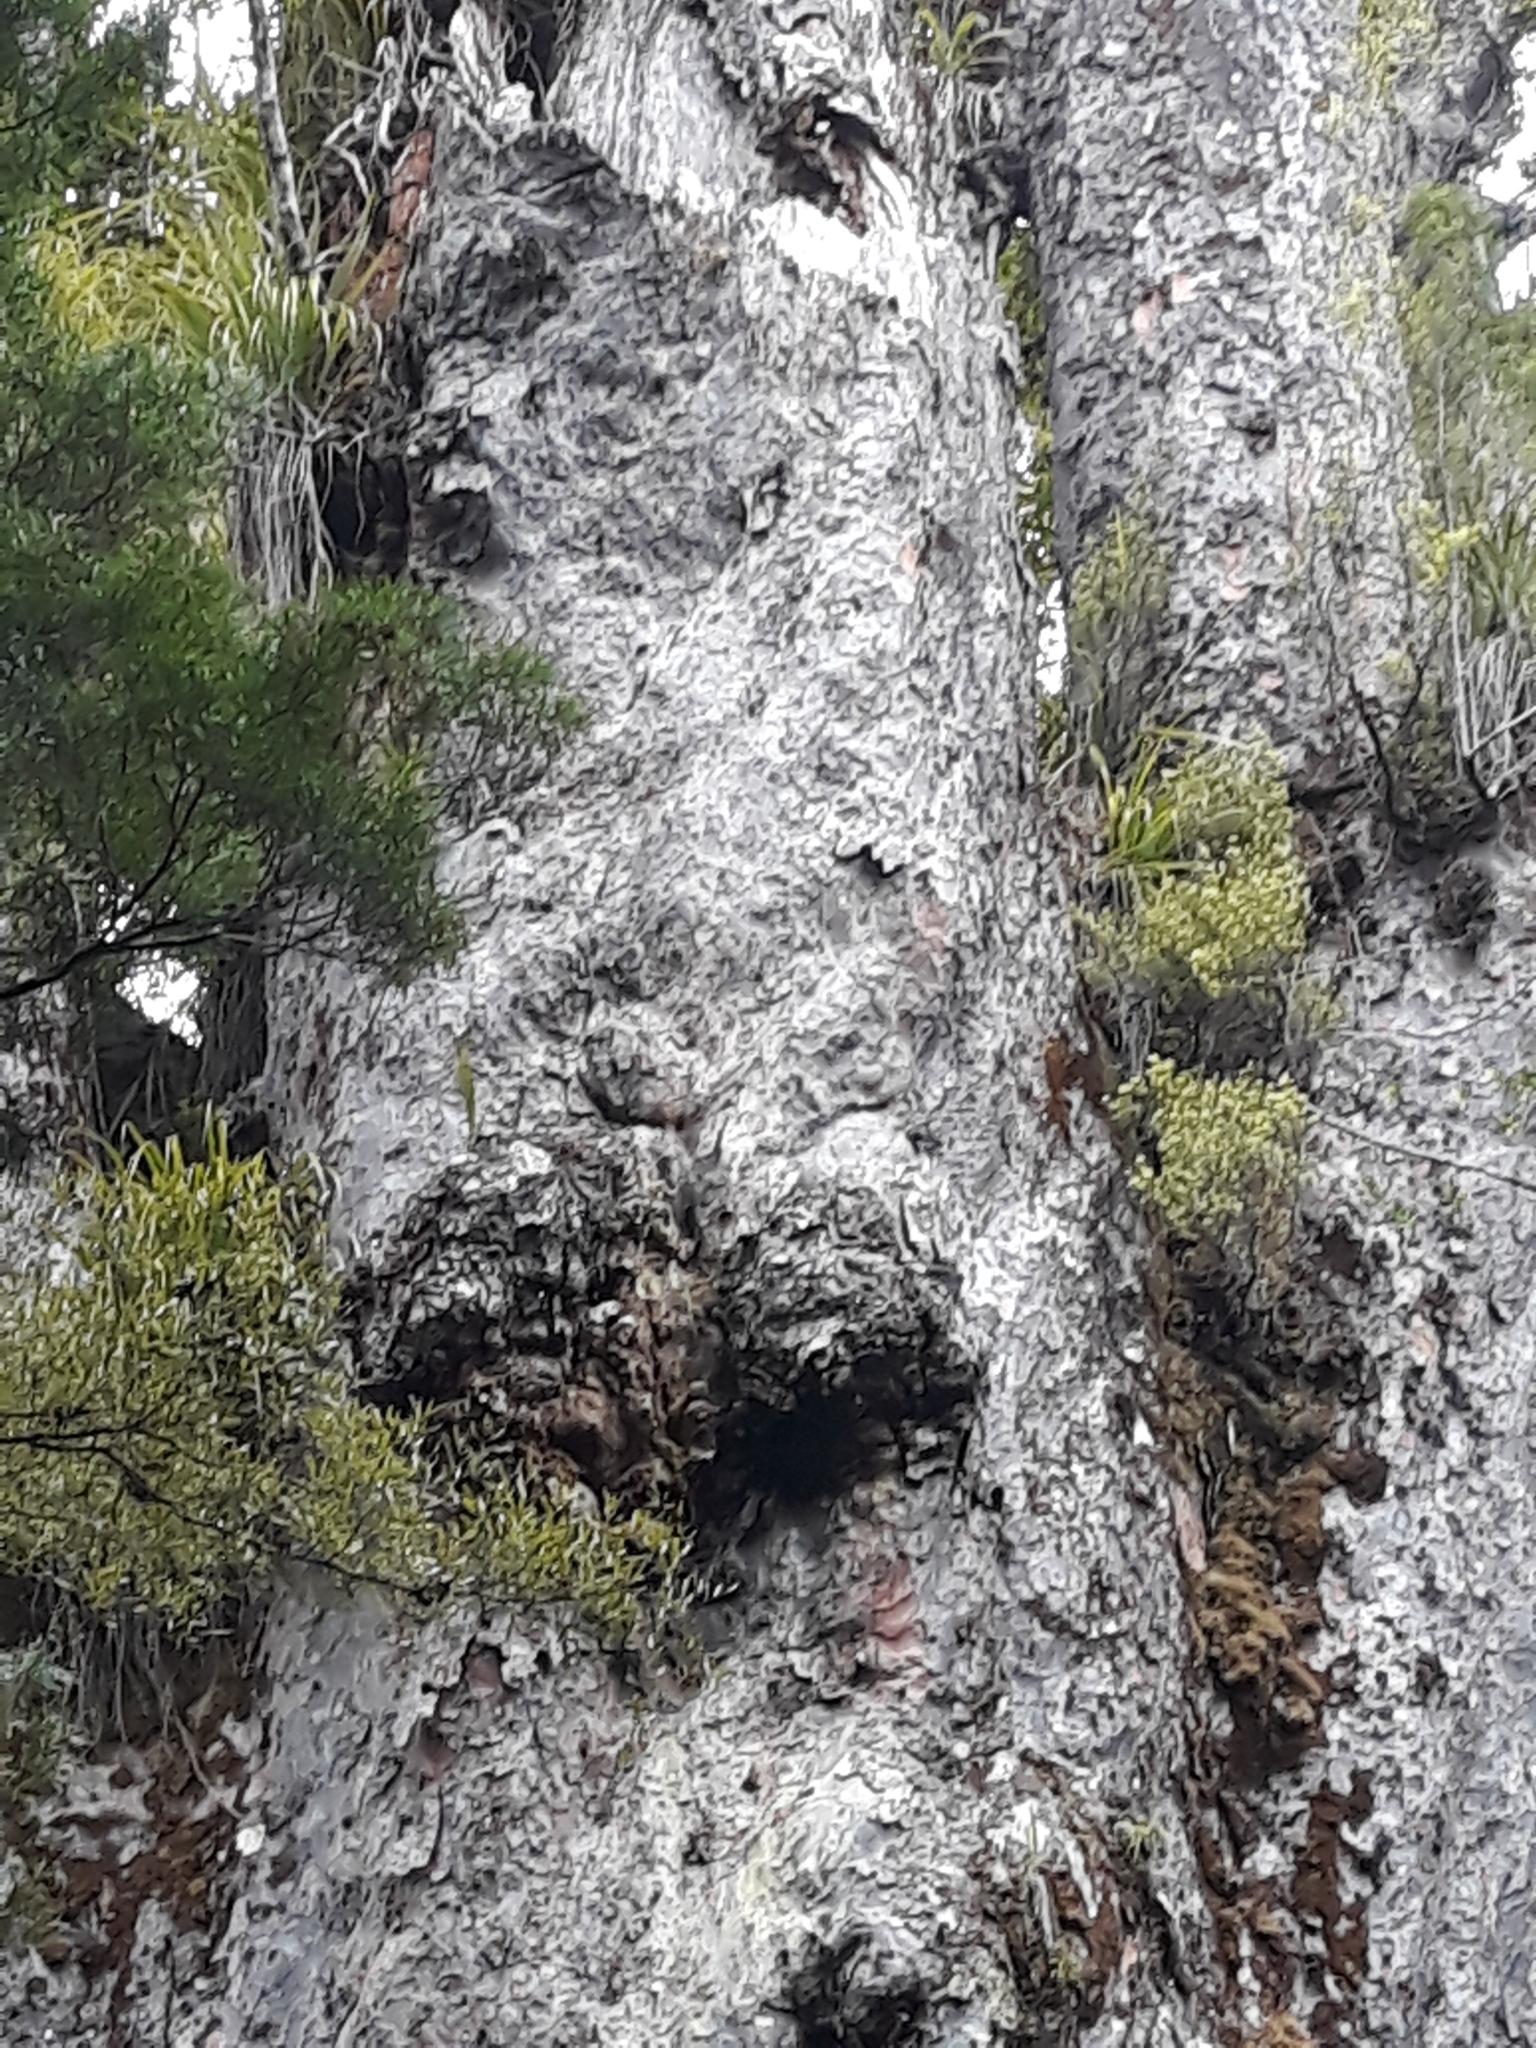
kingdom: Animalia
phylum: Arthropoda
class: Insecta
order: Hymenoptera
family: Apidae
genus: Apis
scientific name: Apis mellifera
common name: Honey bee
